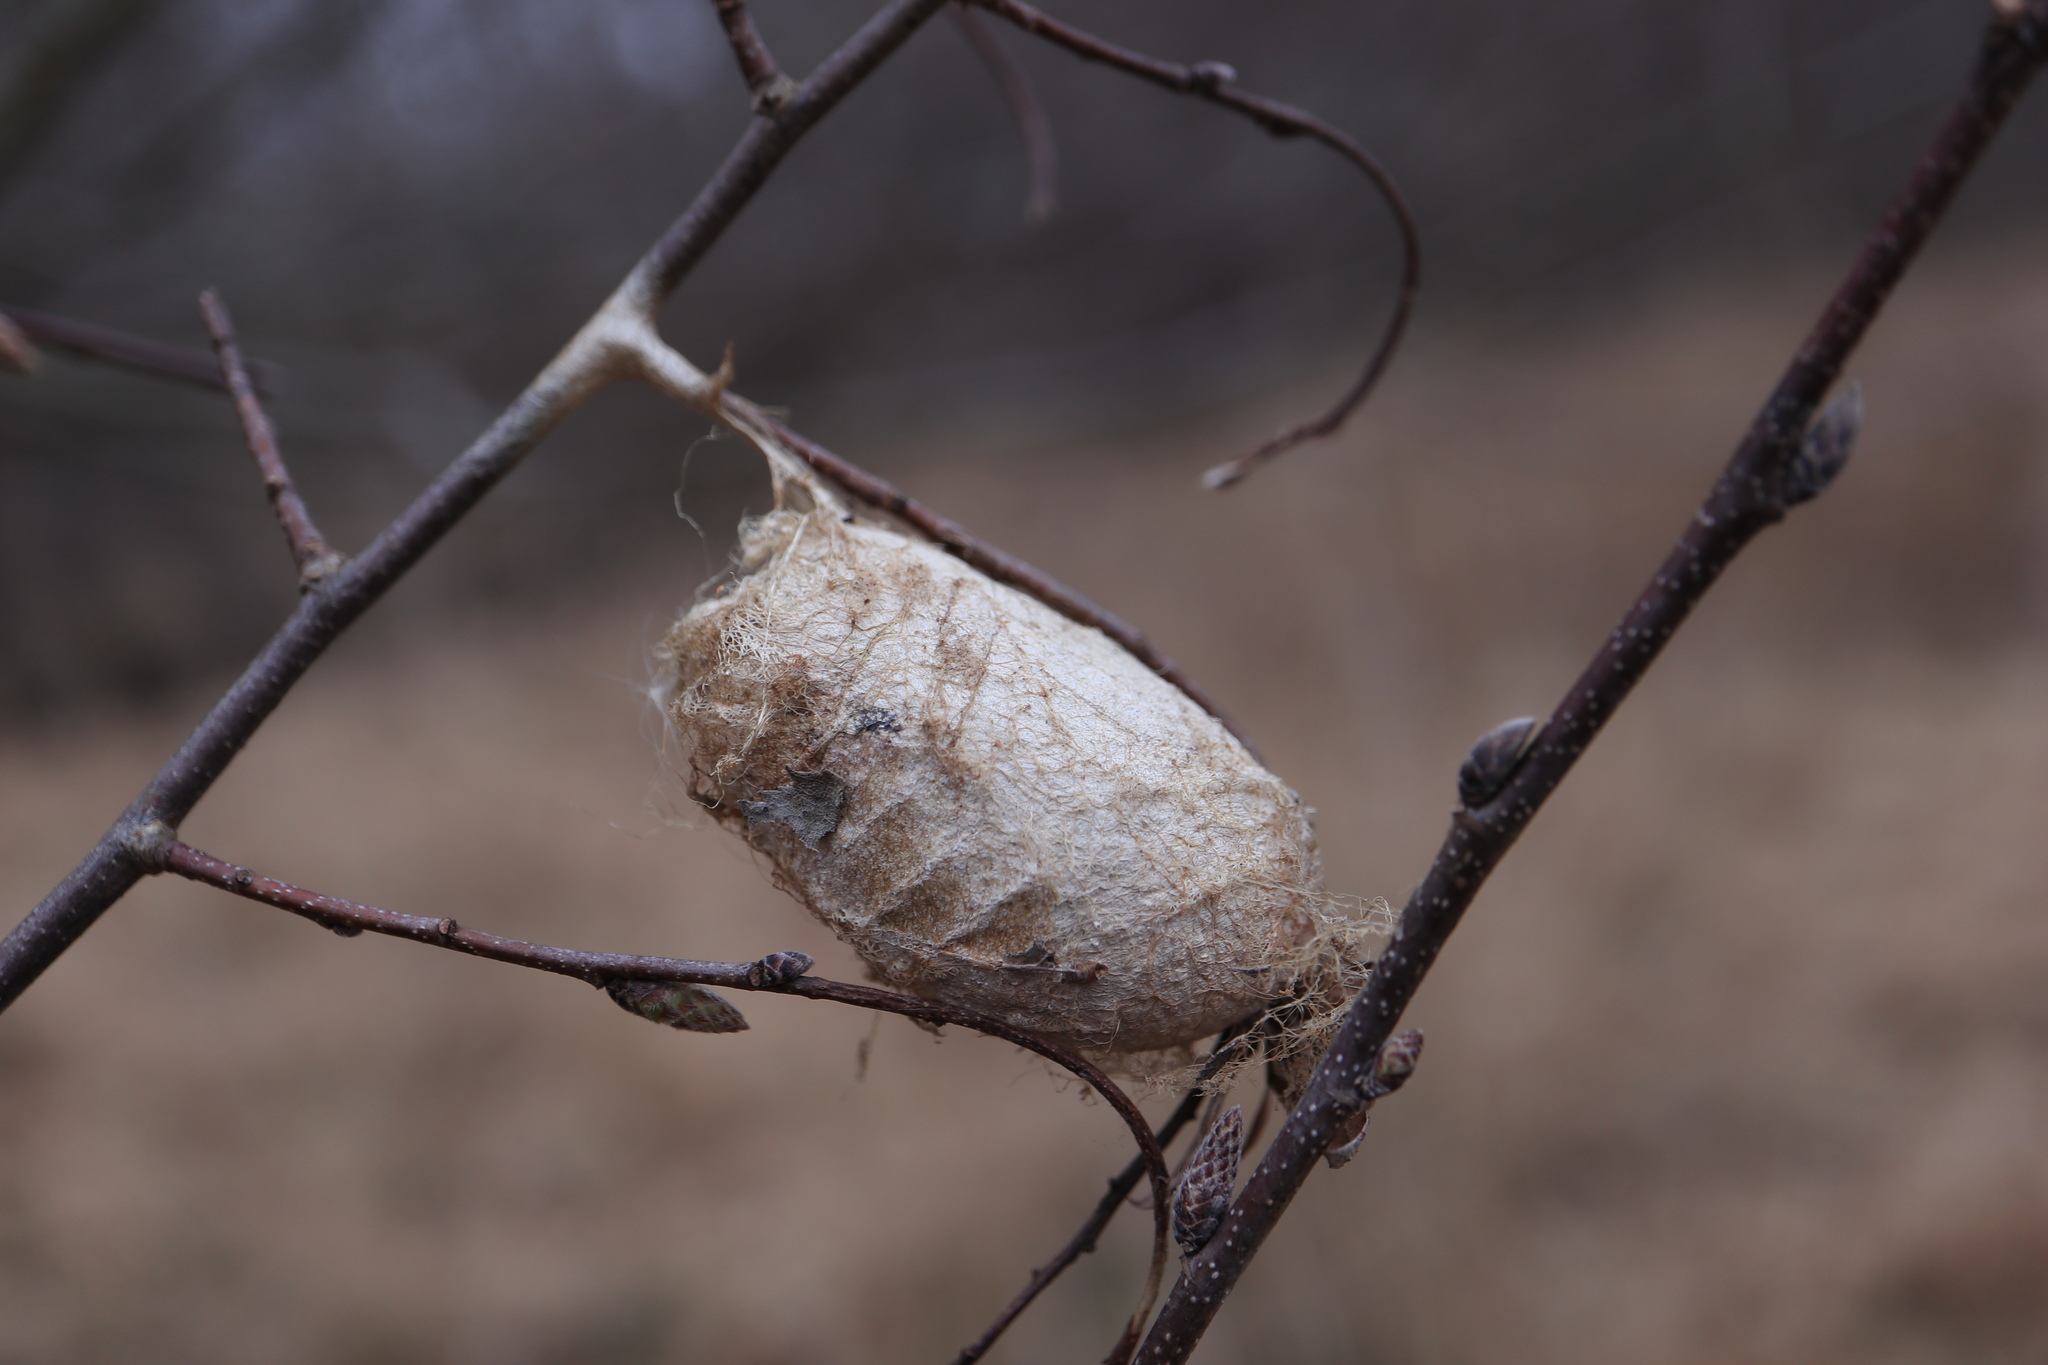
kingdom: Animalia
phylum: Arthropoda
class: Insecta
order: Lepidoptera
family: Saturniidae
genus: Antheraea
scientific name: Antheraea polyphemus
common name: Polyphemus moth
